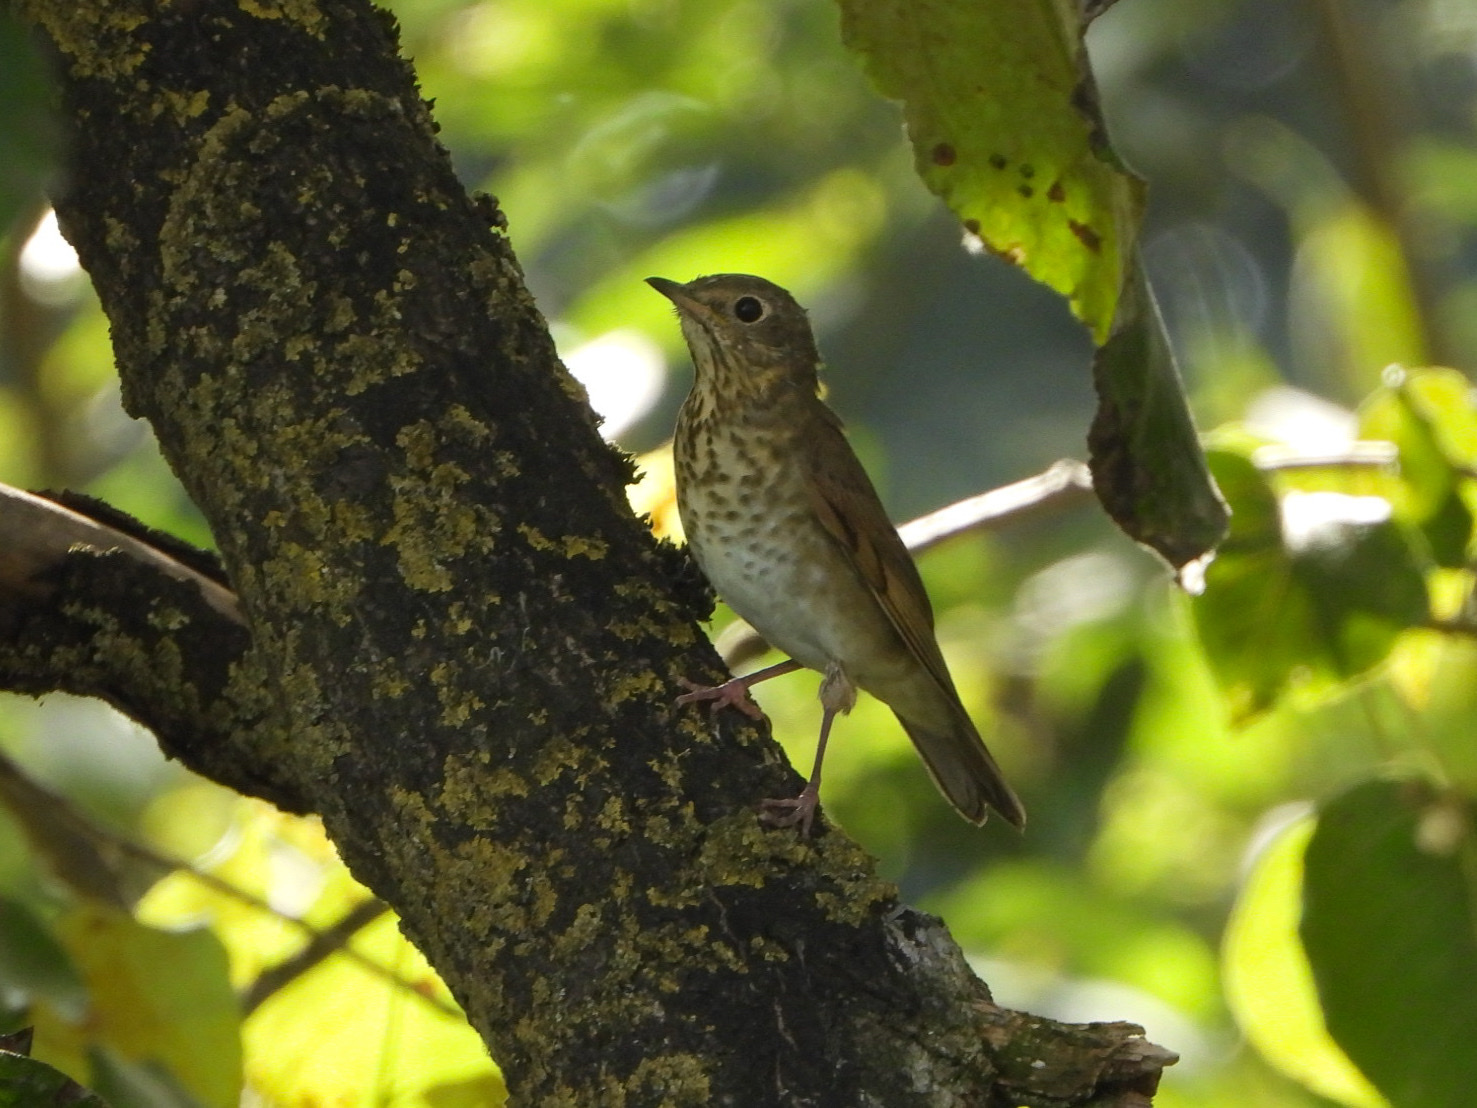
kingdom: Animalia
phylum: Chordata
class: Aves
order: Passeriformes
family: Turdidae
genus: Catharus
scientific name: Catharus ustulatus
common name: Swainson's thrush
